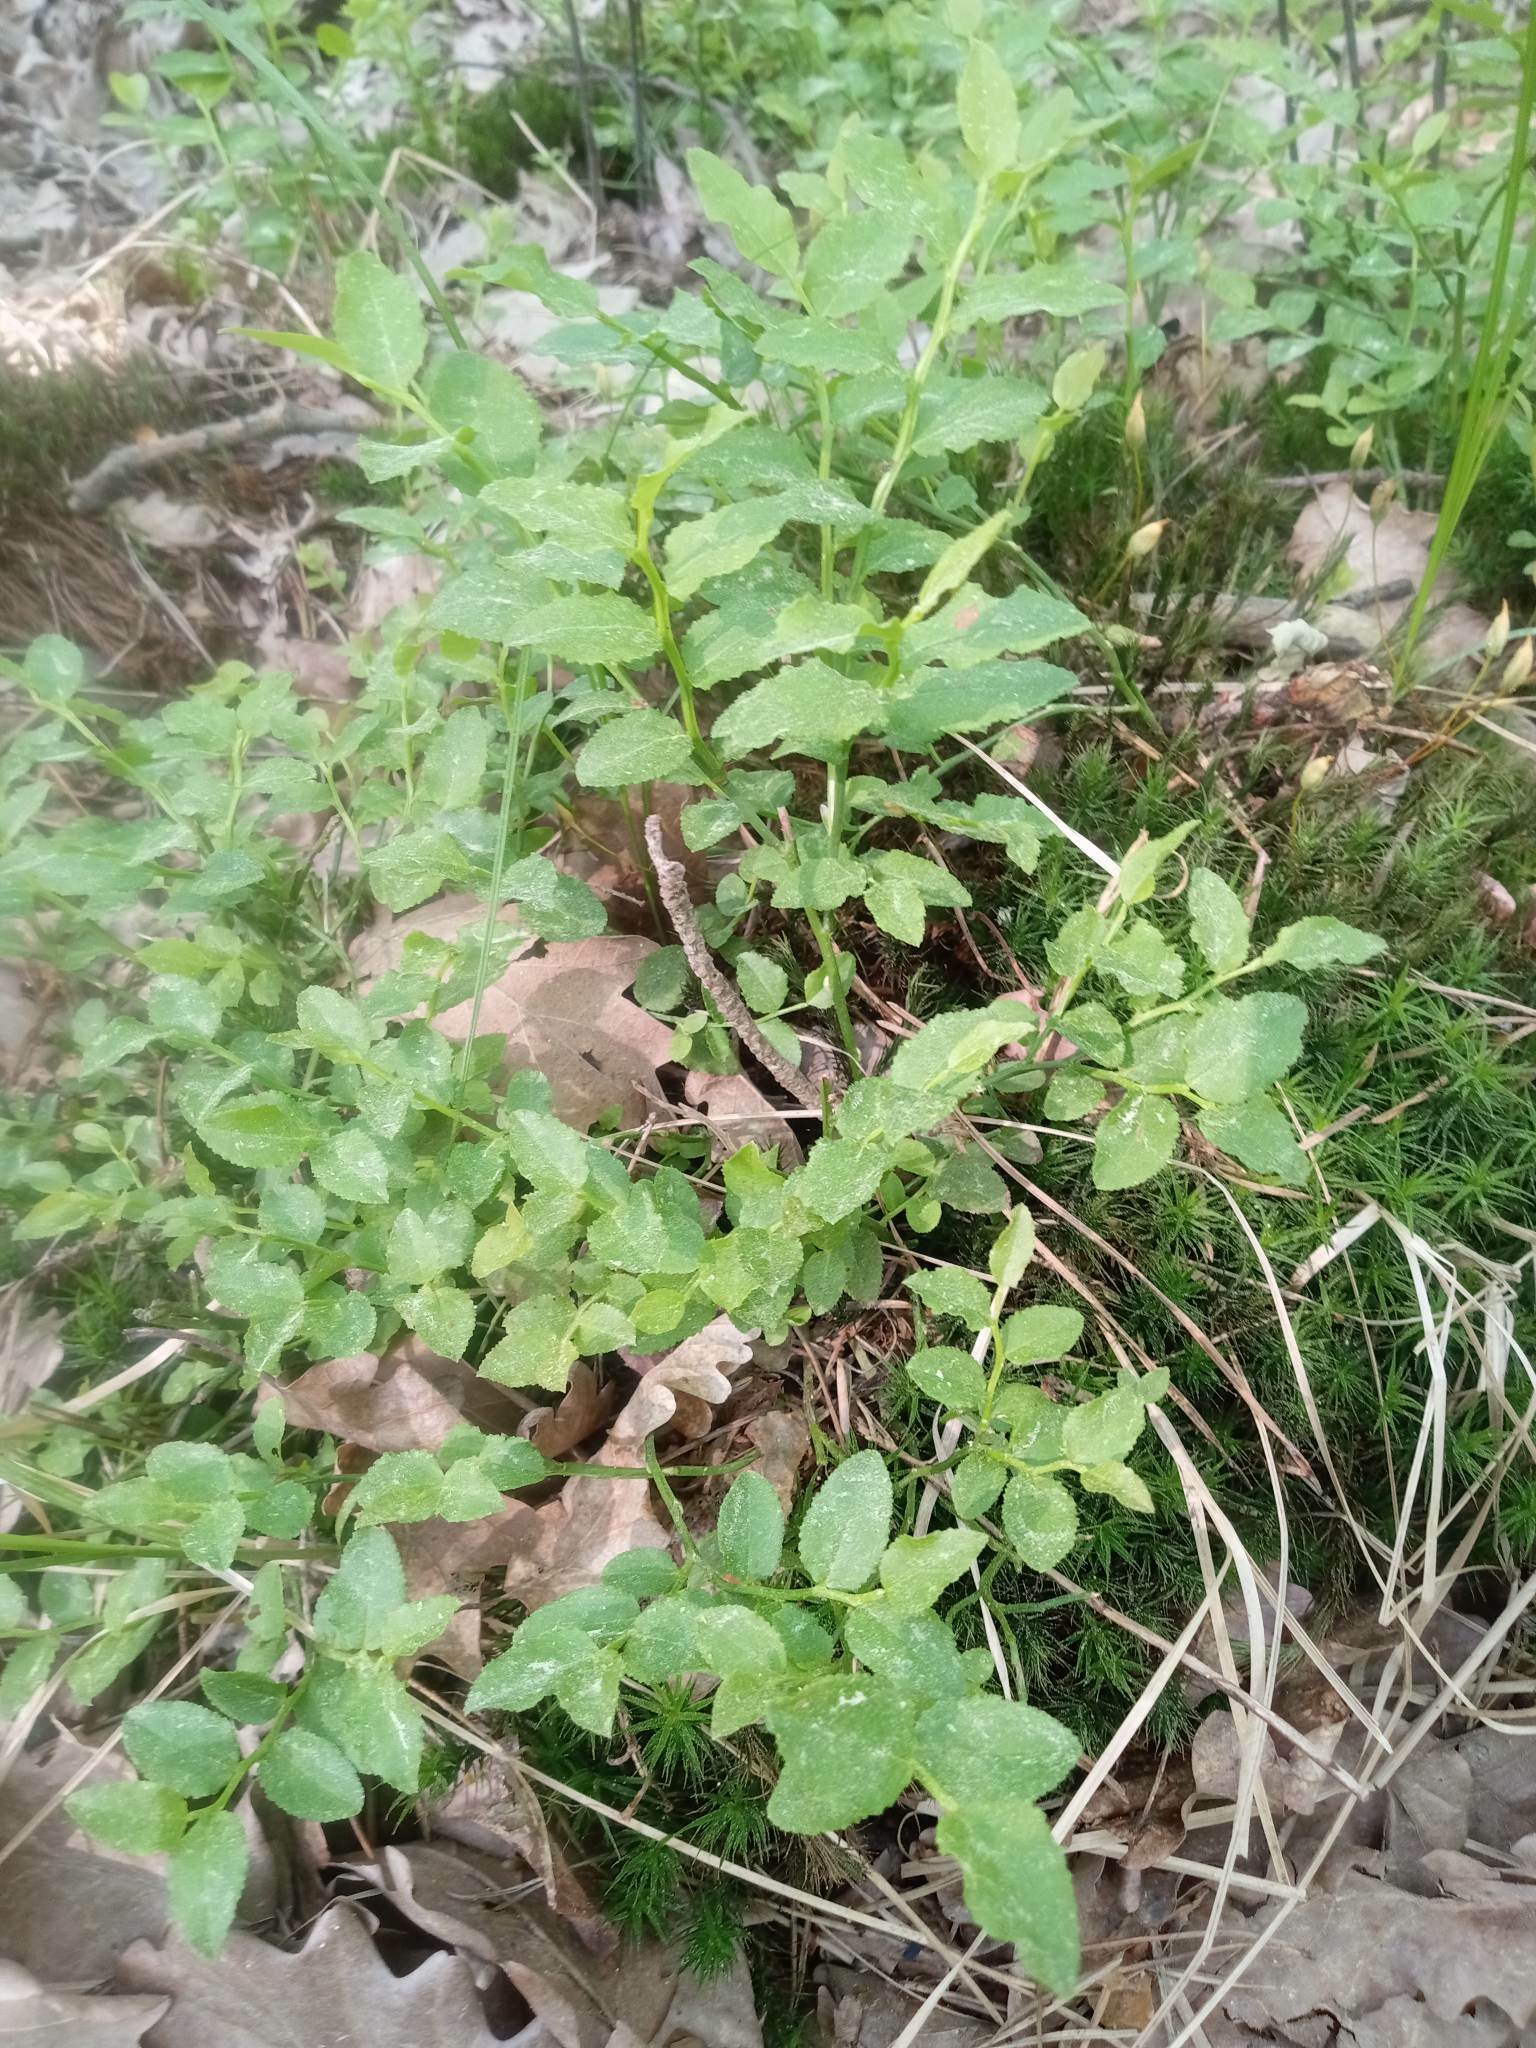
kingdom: Plantae
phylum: Tracheophyta
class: Magnoliopsida
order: Ericales
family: Ericaceae
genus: Vaccinium
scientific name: Vaccinium myrtillus
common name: Bilberry
